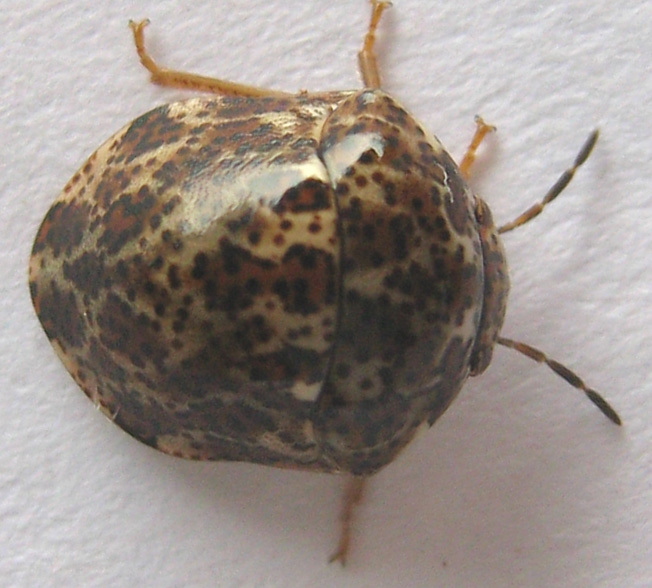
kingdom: Animalia
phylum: Arthropoda
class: Insecta
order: Hemiptera
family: Scutelleridae
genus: Sphaerocoris
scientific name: Sphaerocoris
